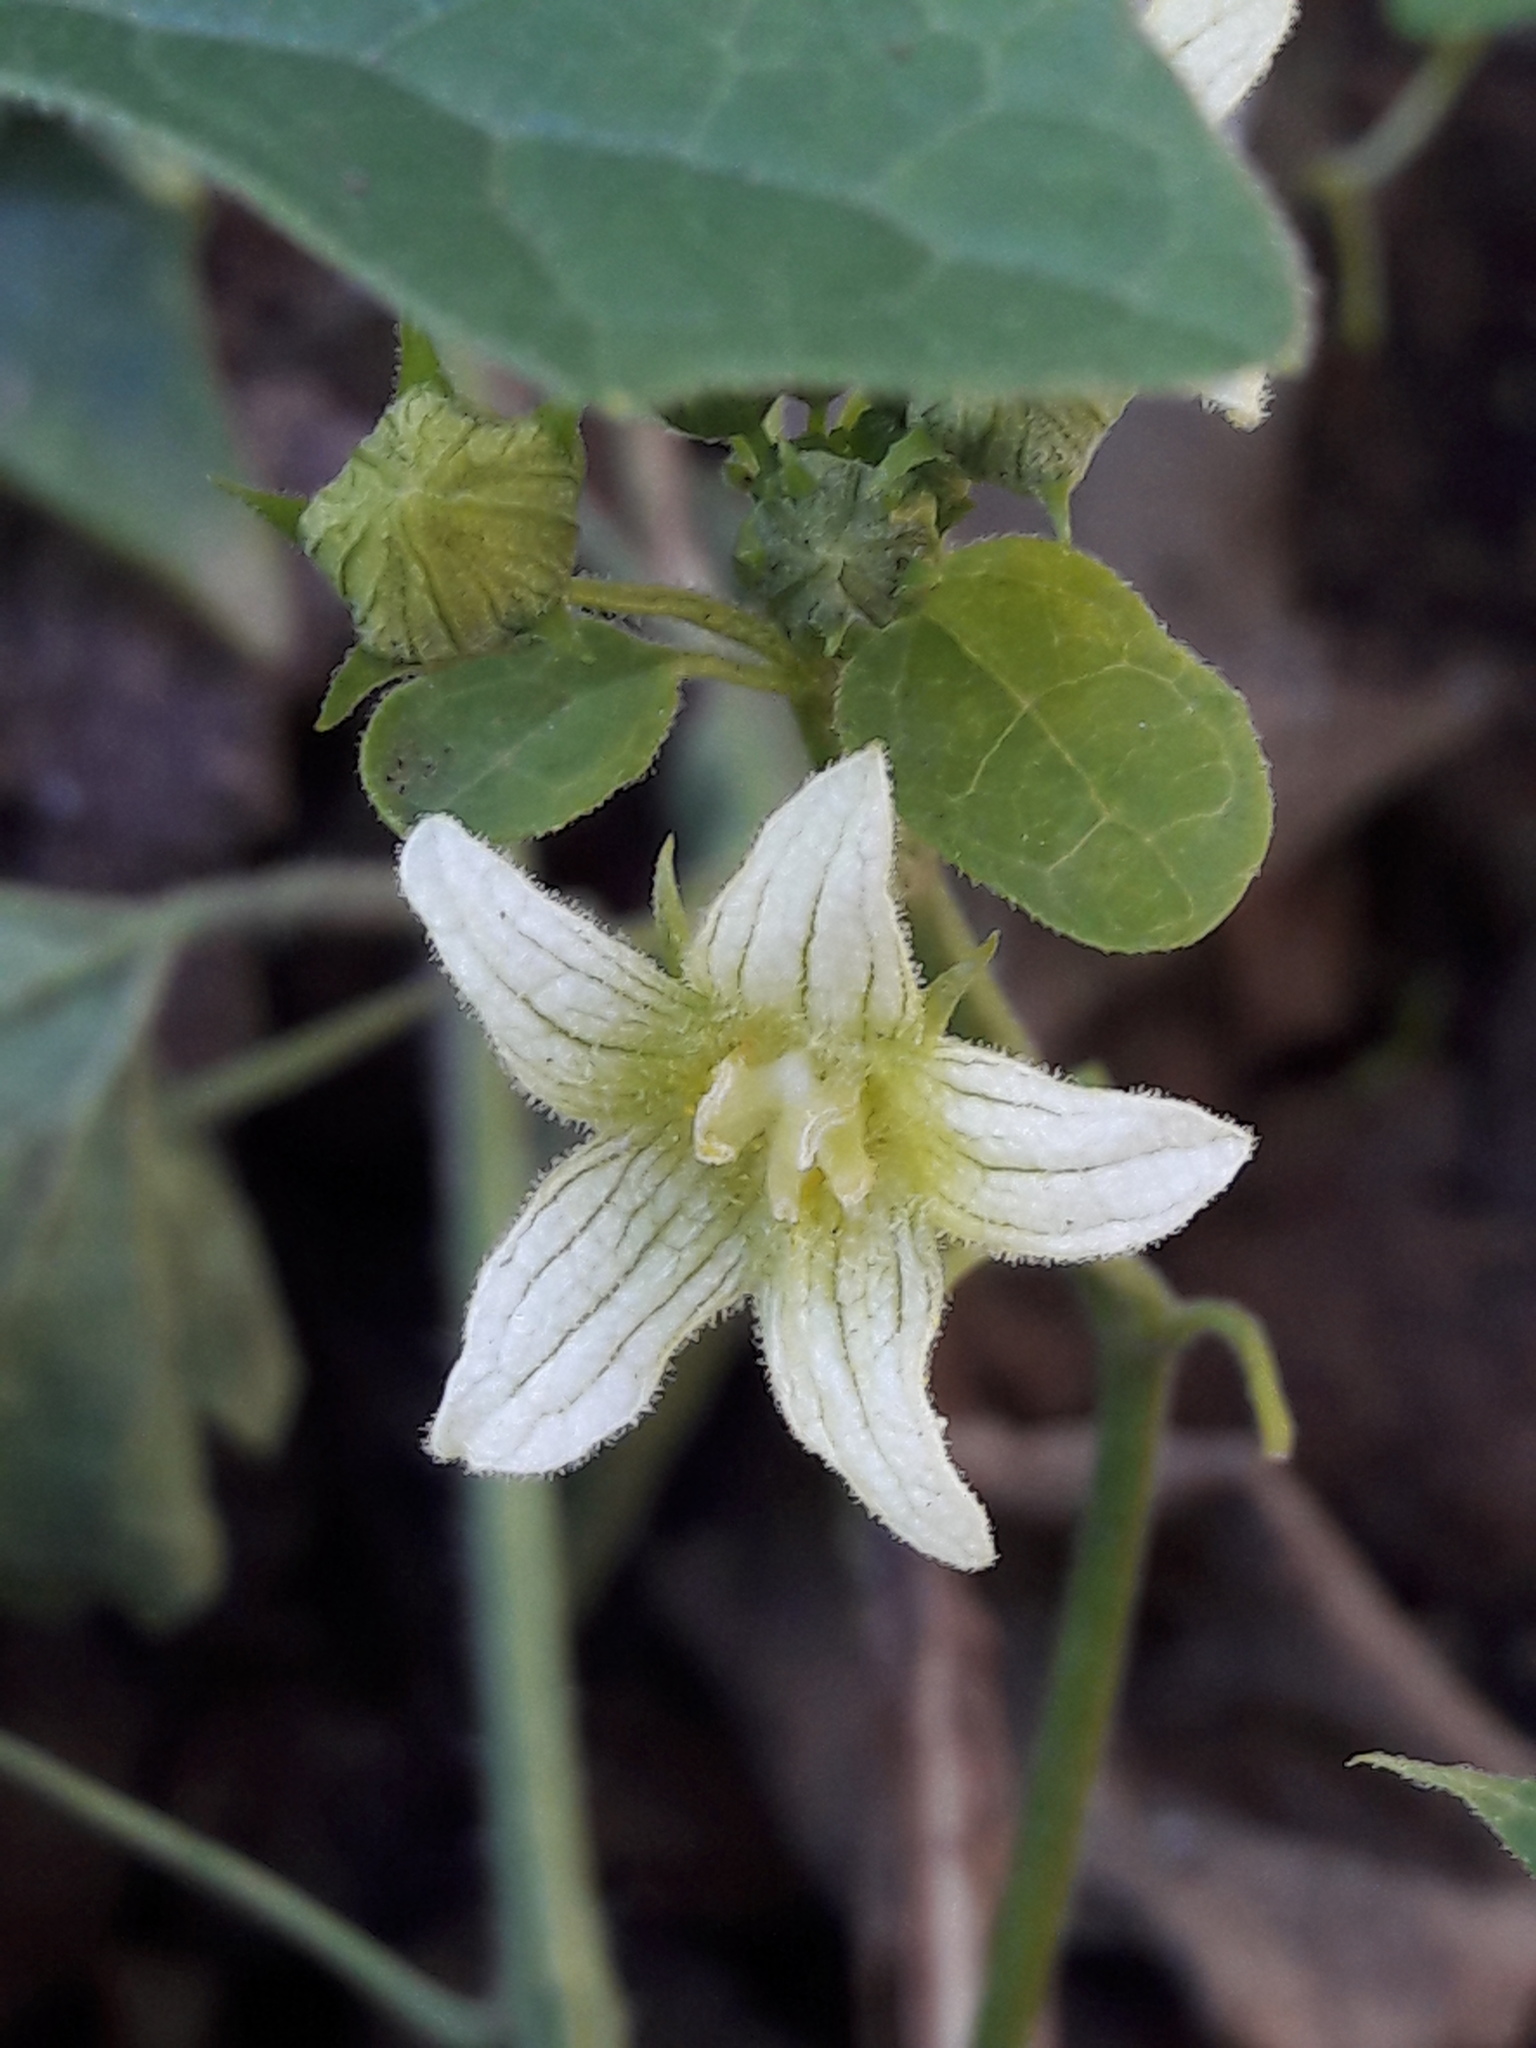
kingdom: Plantae
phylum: Tracheophyta
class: Magnoliopsida
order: Cucurbitales
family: Cucurbitaceae
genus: Bryonia
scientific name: Bryonia cretica
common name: Cretan bryony
